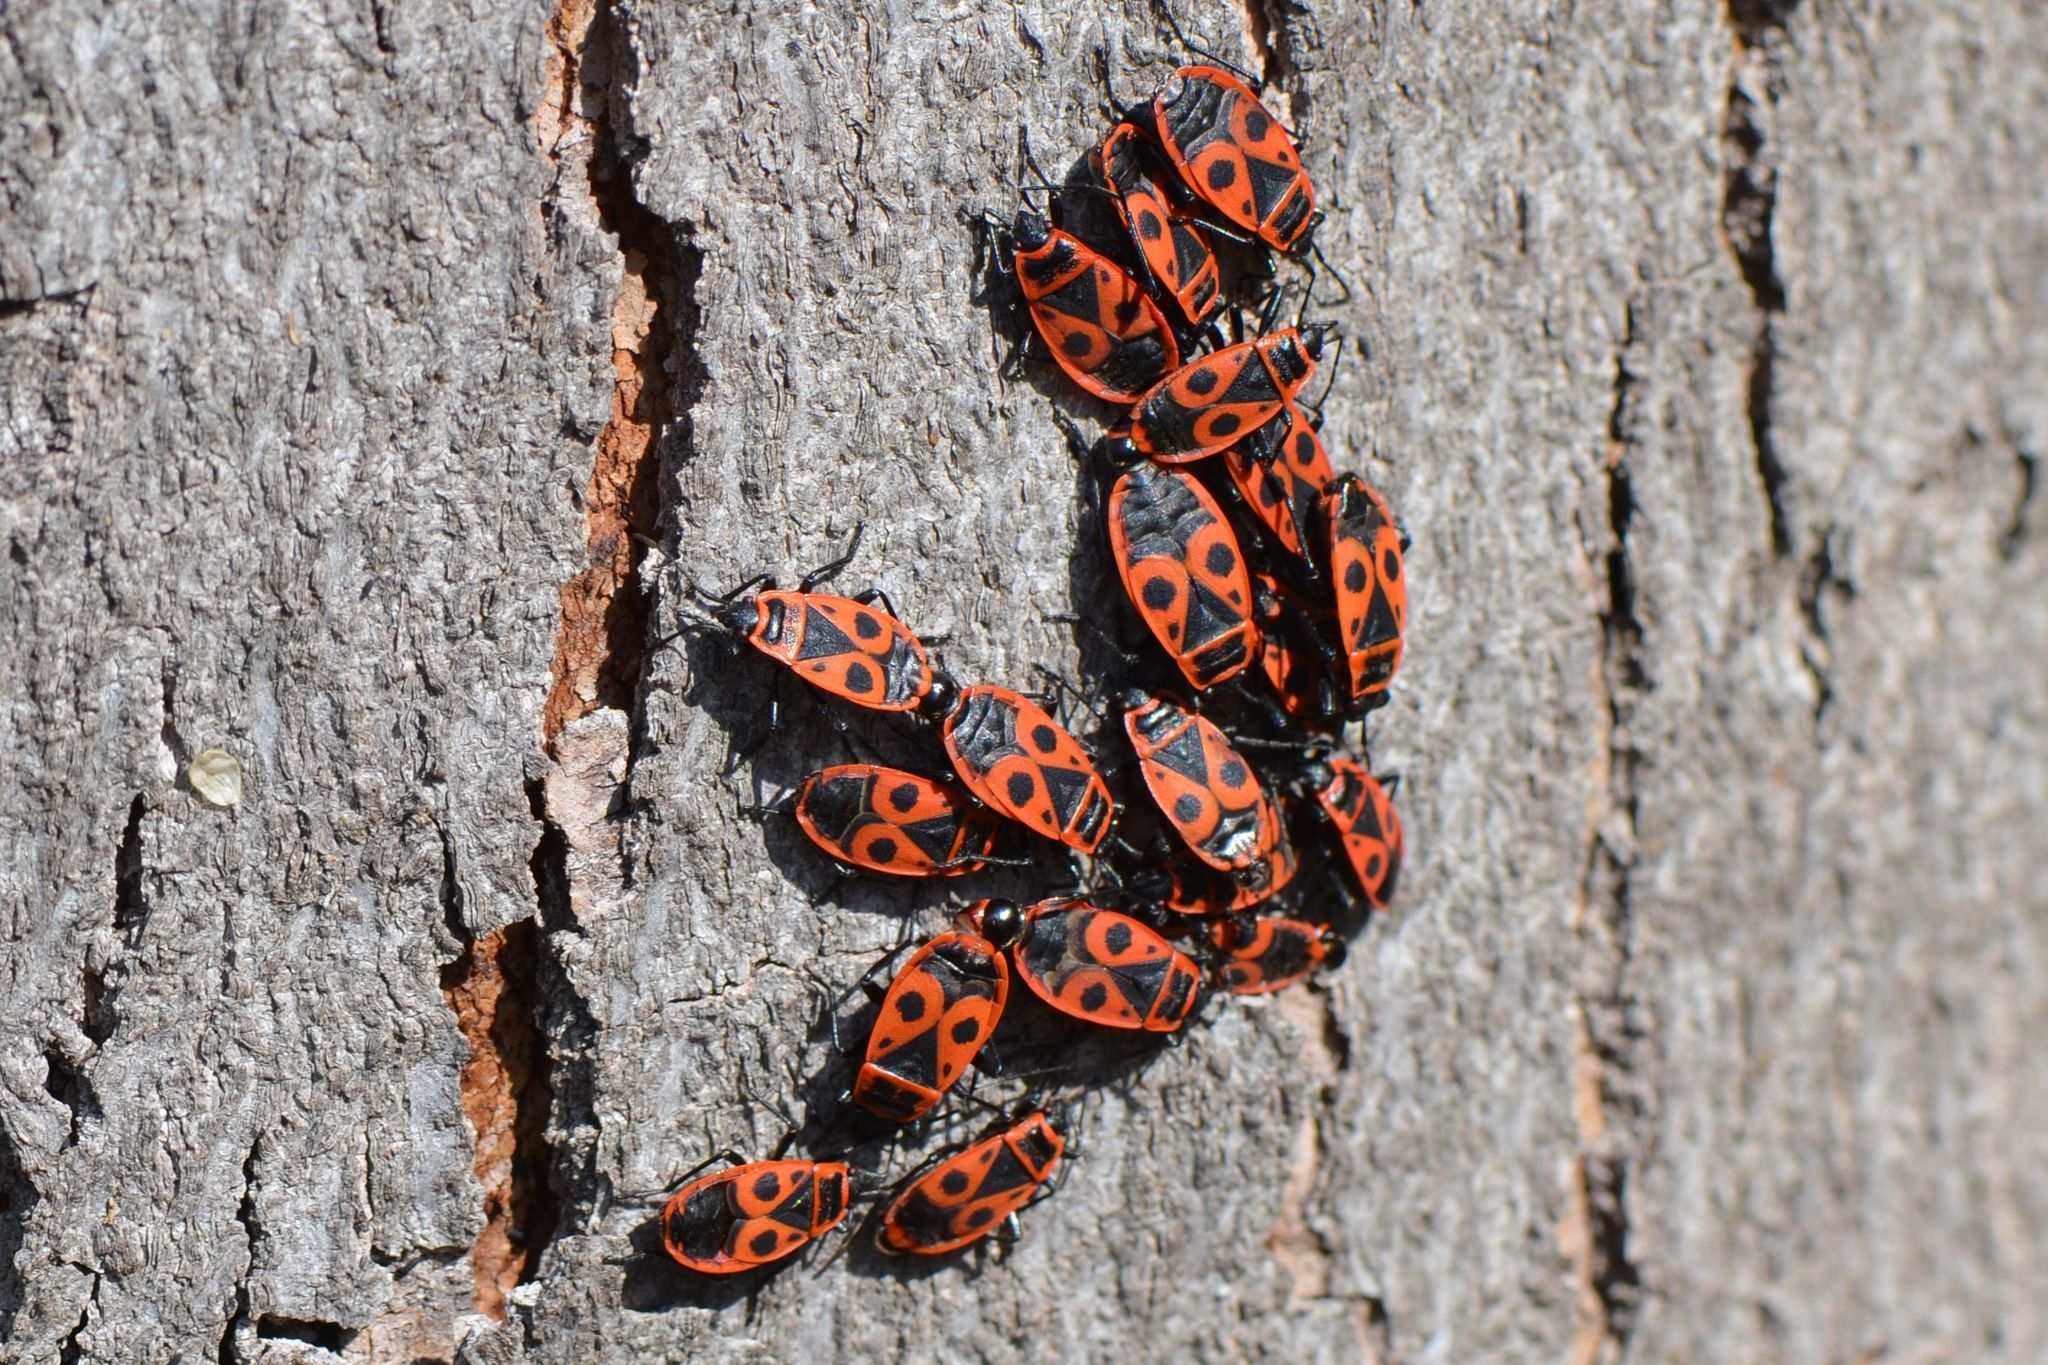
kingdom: Animalia
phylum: Arthropoda
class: Insecta
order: Hemiptera
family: Pyrrhocoridae
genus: Pyrrhocoris
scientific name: Pyrrhocoris apterus
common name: Firebug
